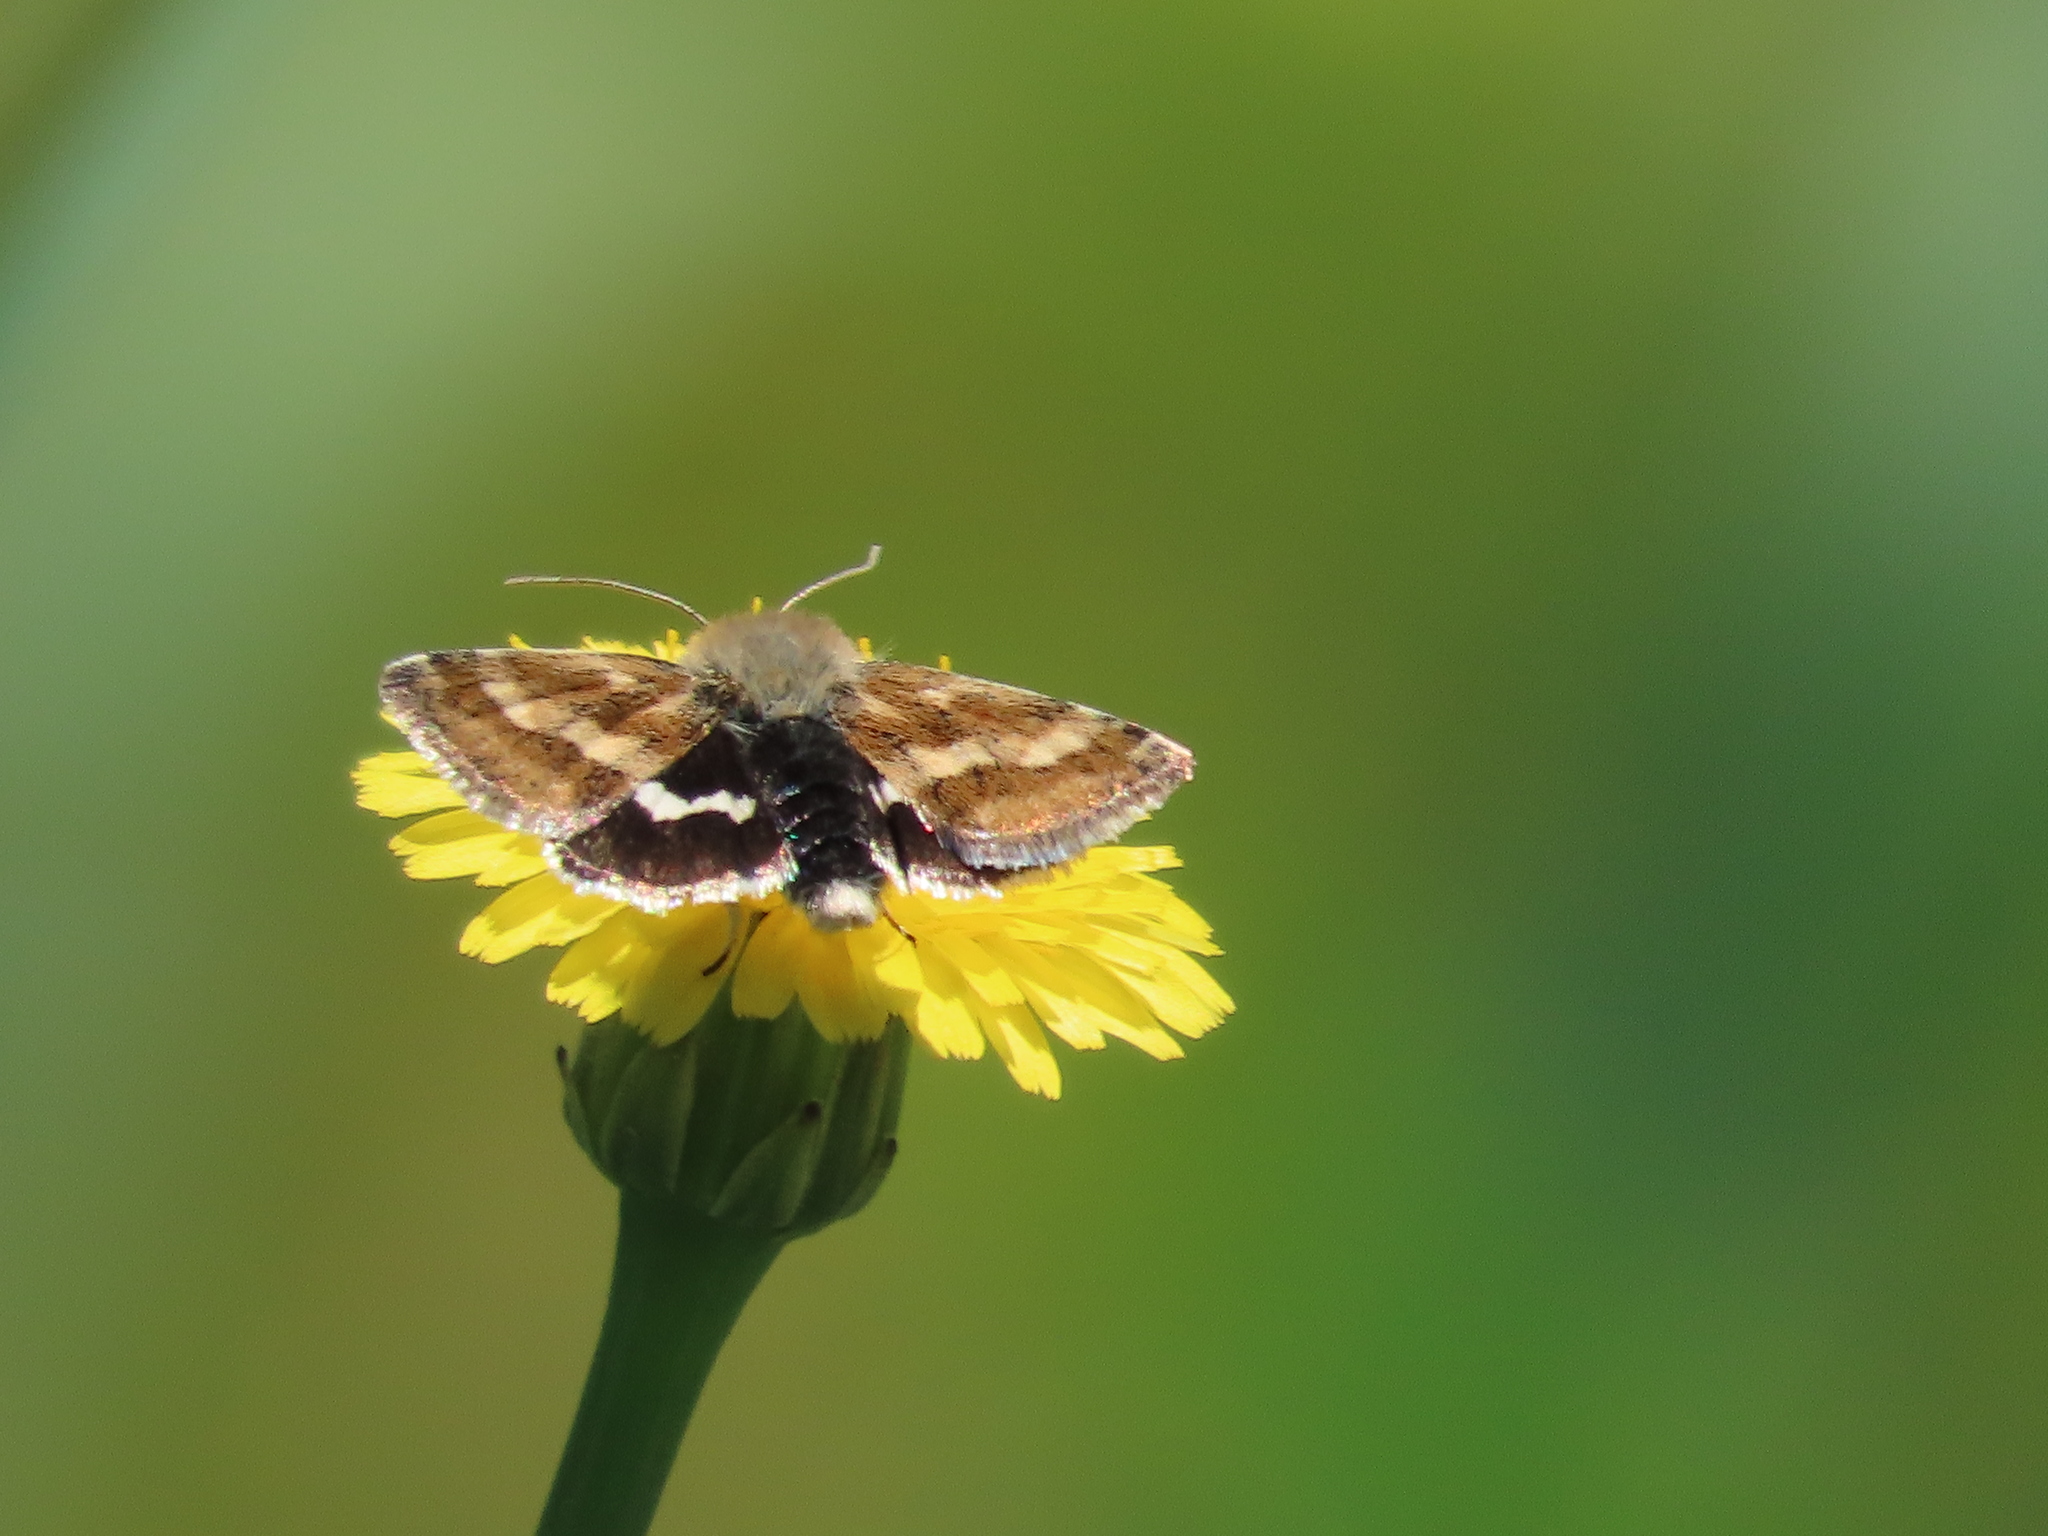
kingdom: Animalia
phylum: Arthropoda
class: Insecta
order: Lepidoptera
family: Noctuidae
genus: Heliothodes
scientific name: Heliothodes diminutiva
